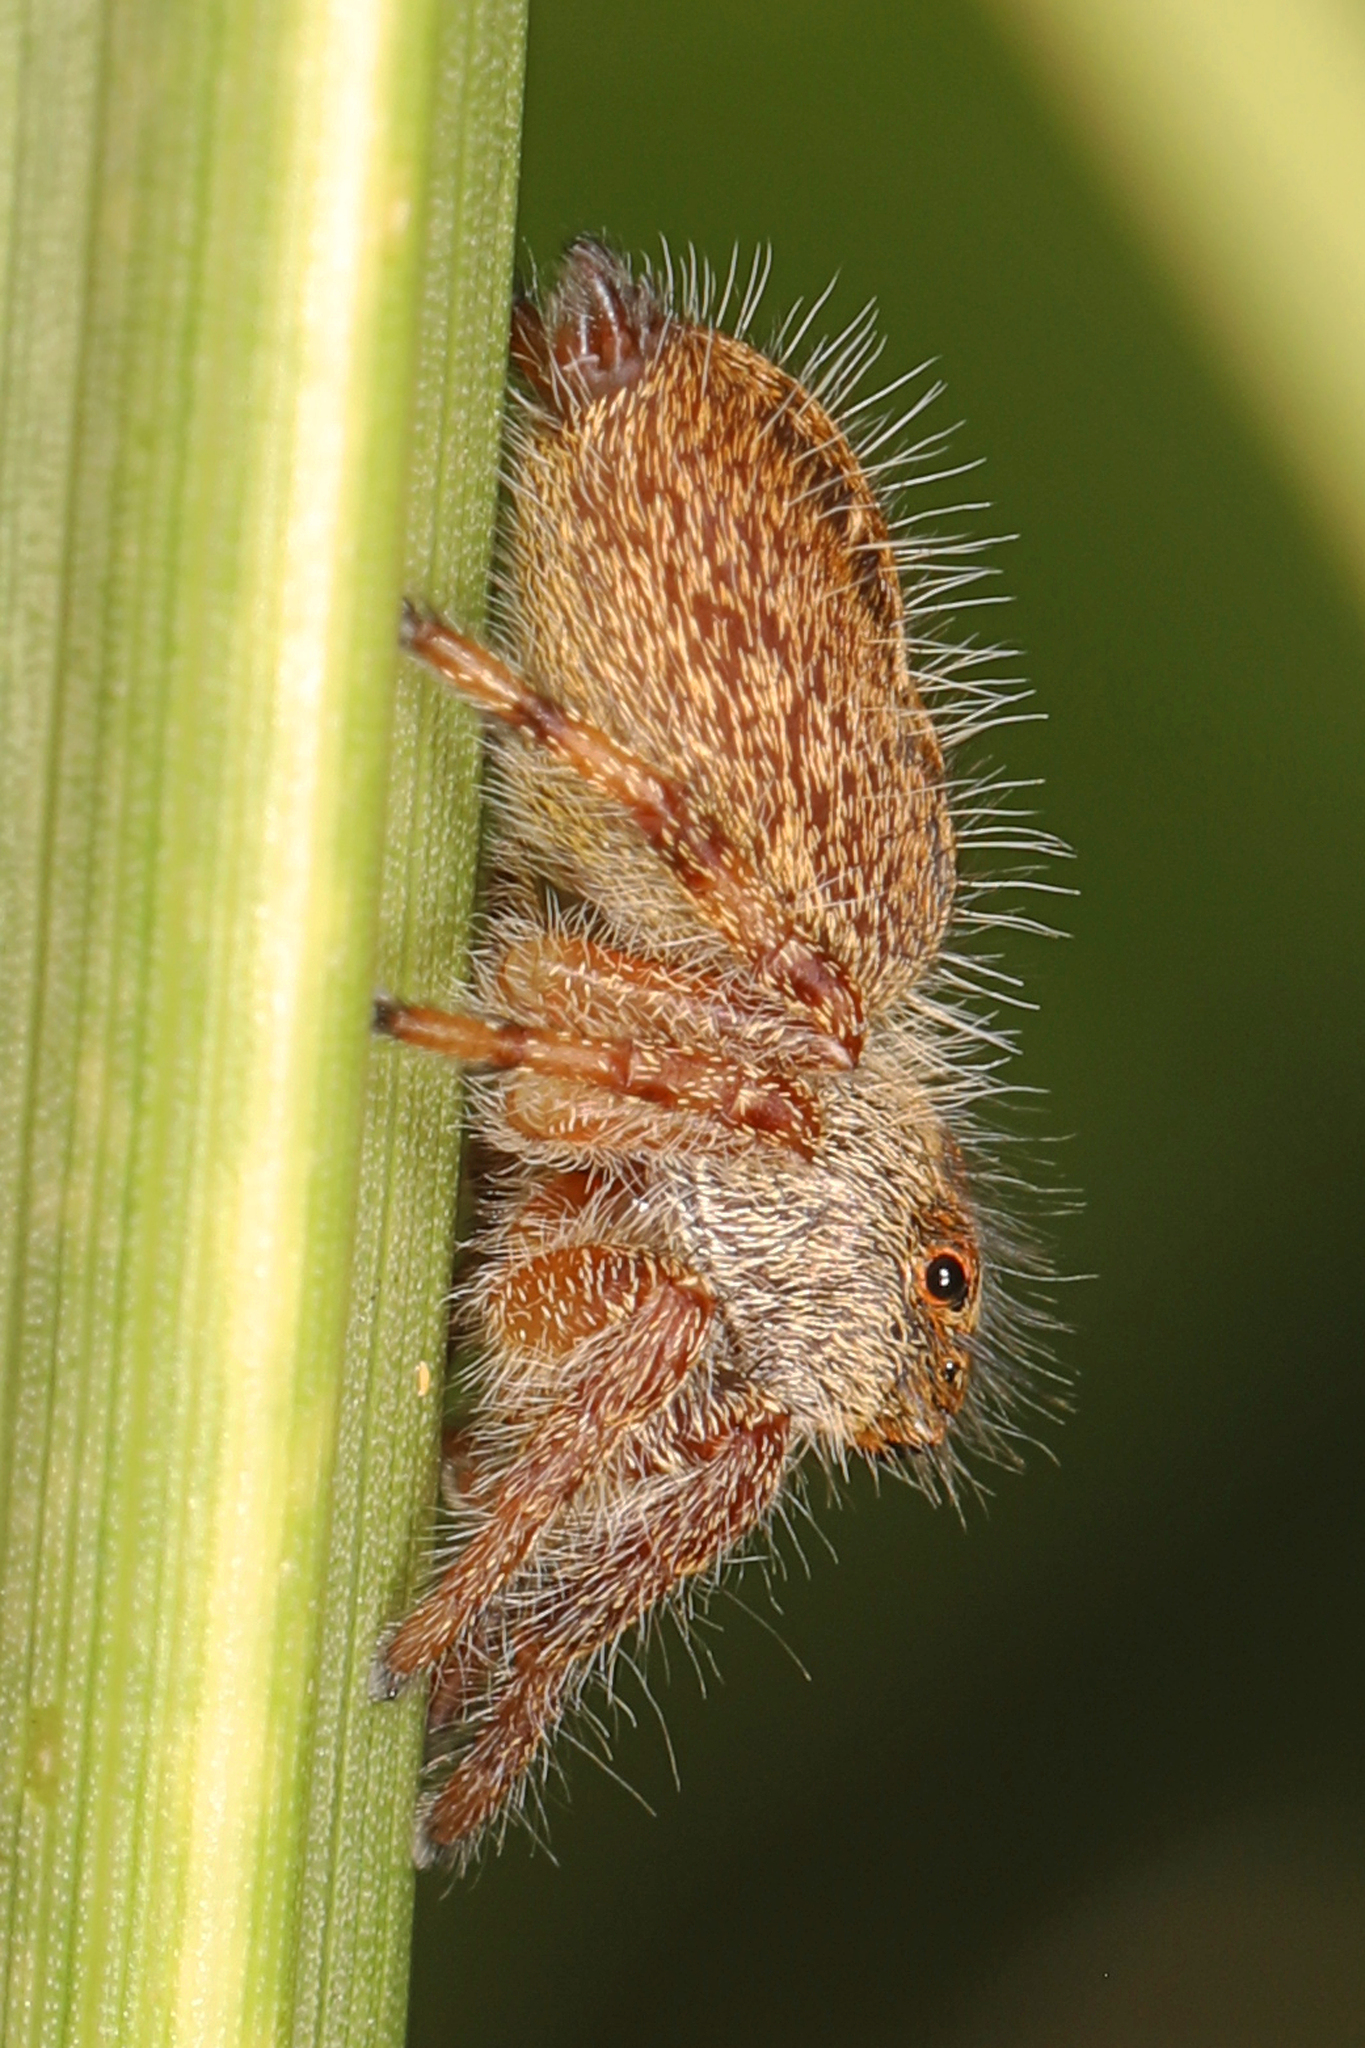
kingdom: Animalia
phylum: Arthropoda
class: Arachnida
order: Araneae
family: Salticidae
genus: Phidippus
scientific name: Phidippus princeps
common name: Grayish jumping spider
